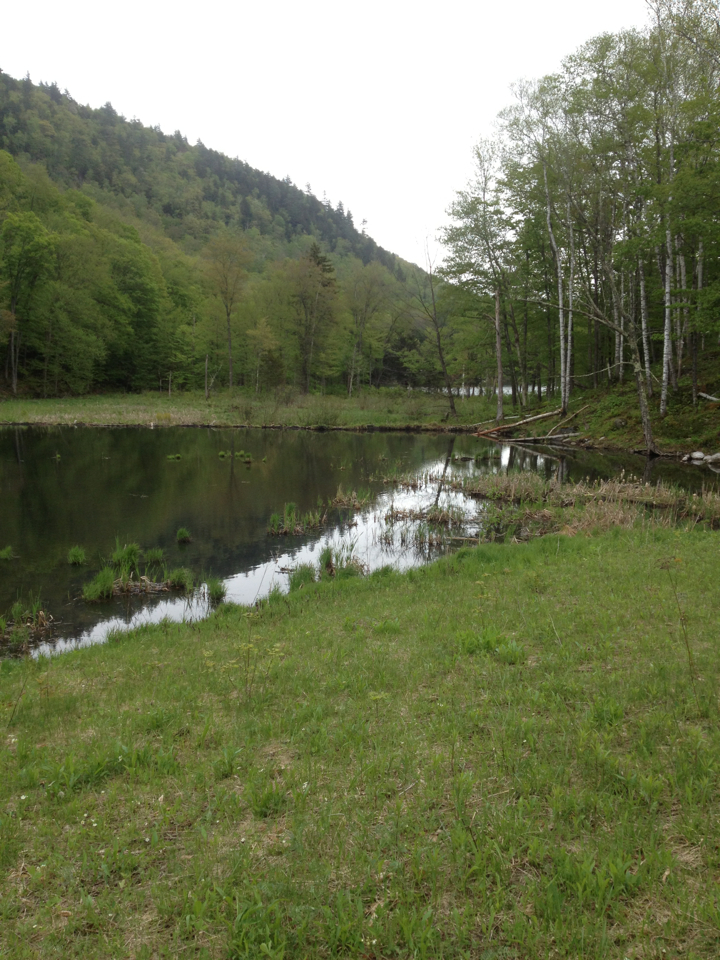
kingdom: Animalia
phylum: Chordata
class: Mammalia
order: Rodentia
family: Castoridae
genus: Castor
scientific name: Castor canadensis
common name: American beaver
